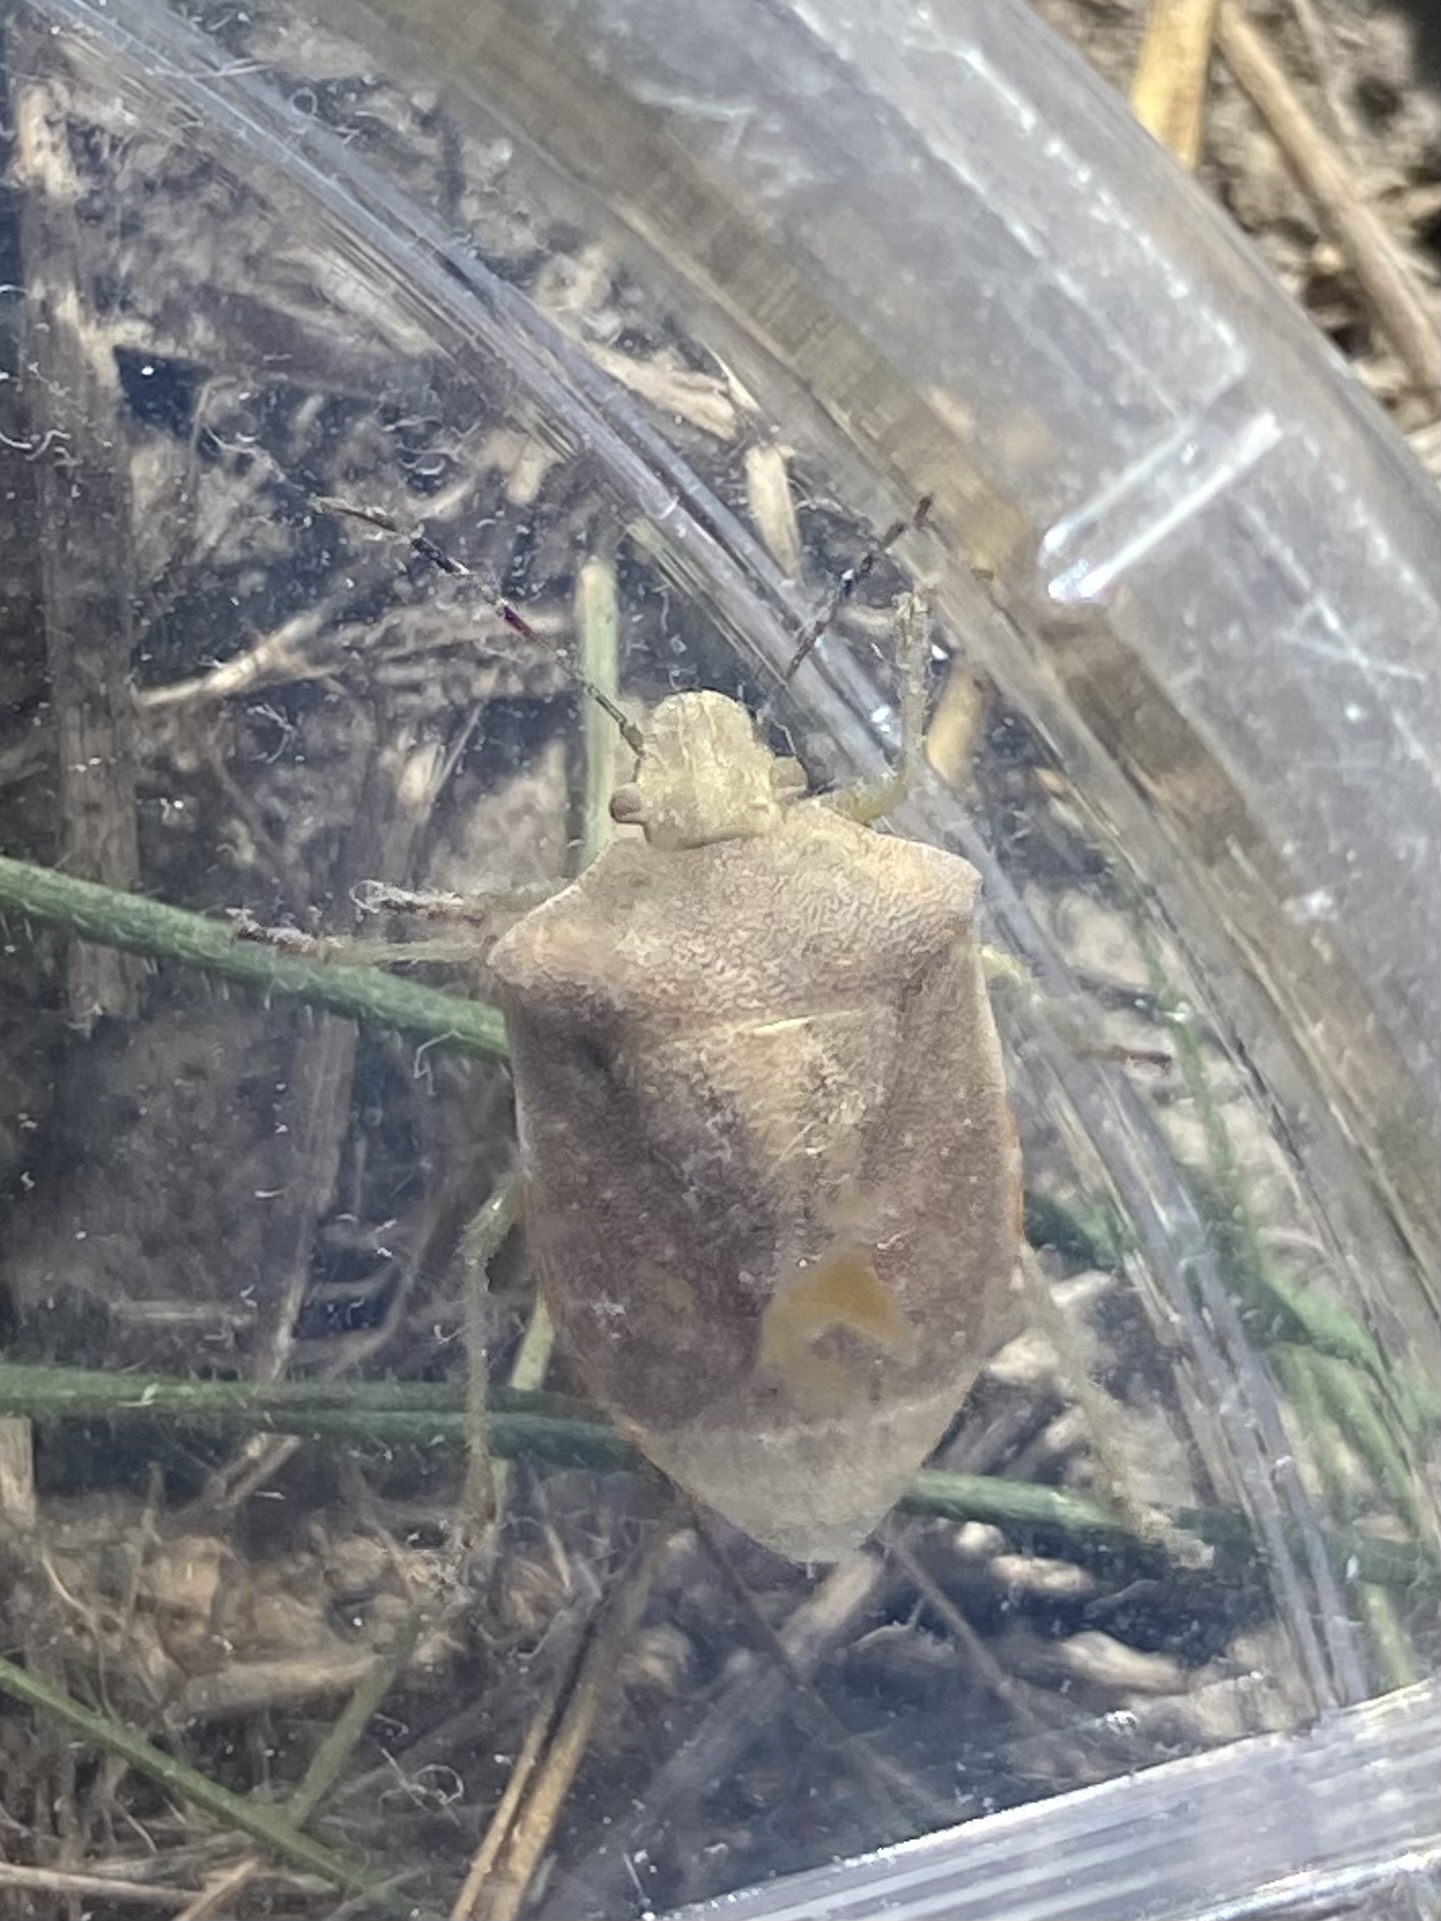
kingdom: Animalia
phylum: Arthropoda
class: Insecta
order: Hemiptera
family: Pentatomidae
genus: Euschistus
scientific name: Euschistus servus
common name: Brown stink bug
